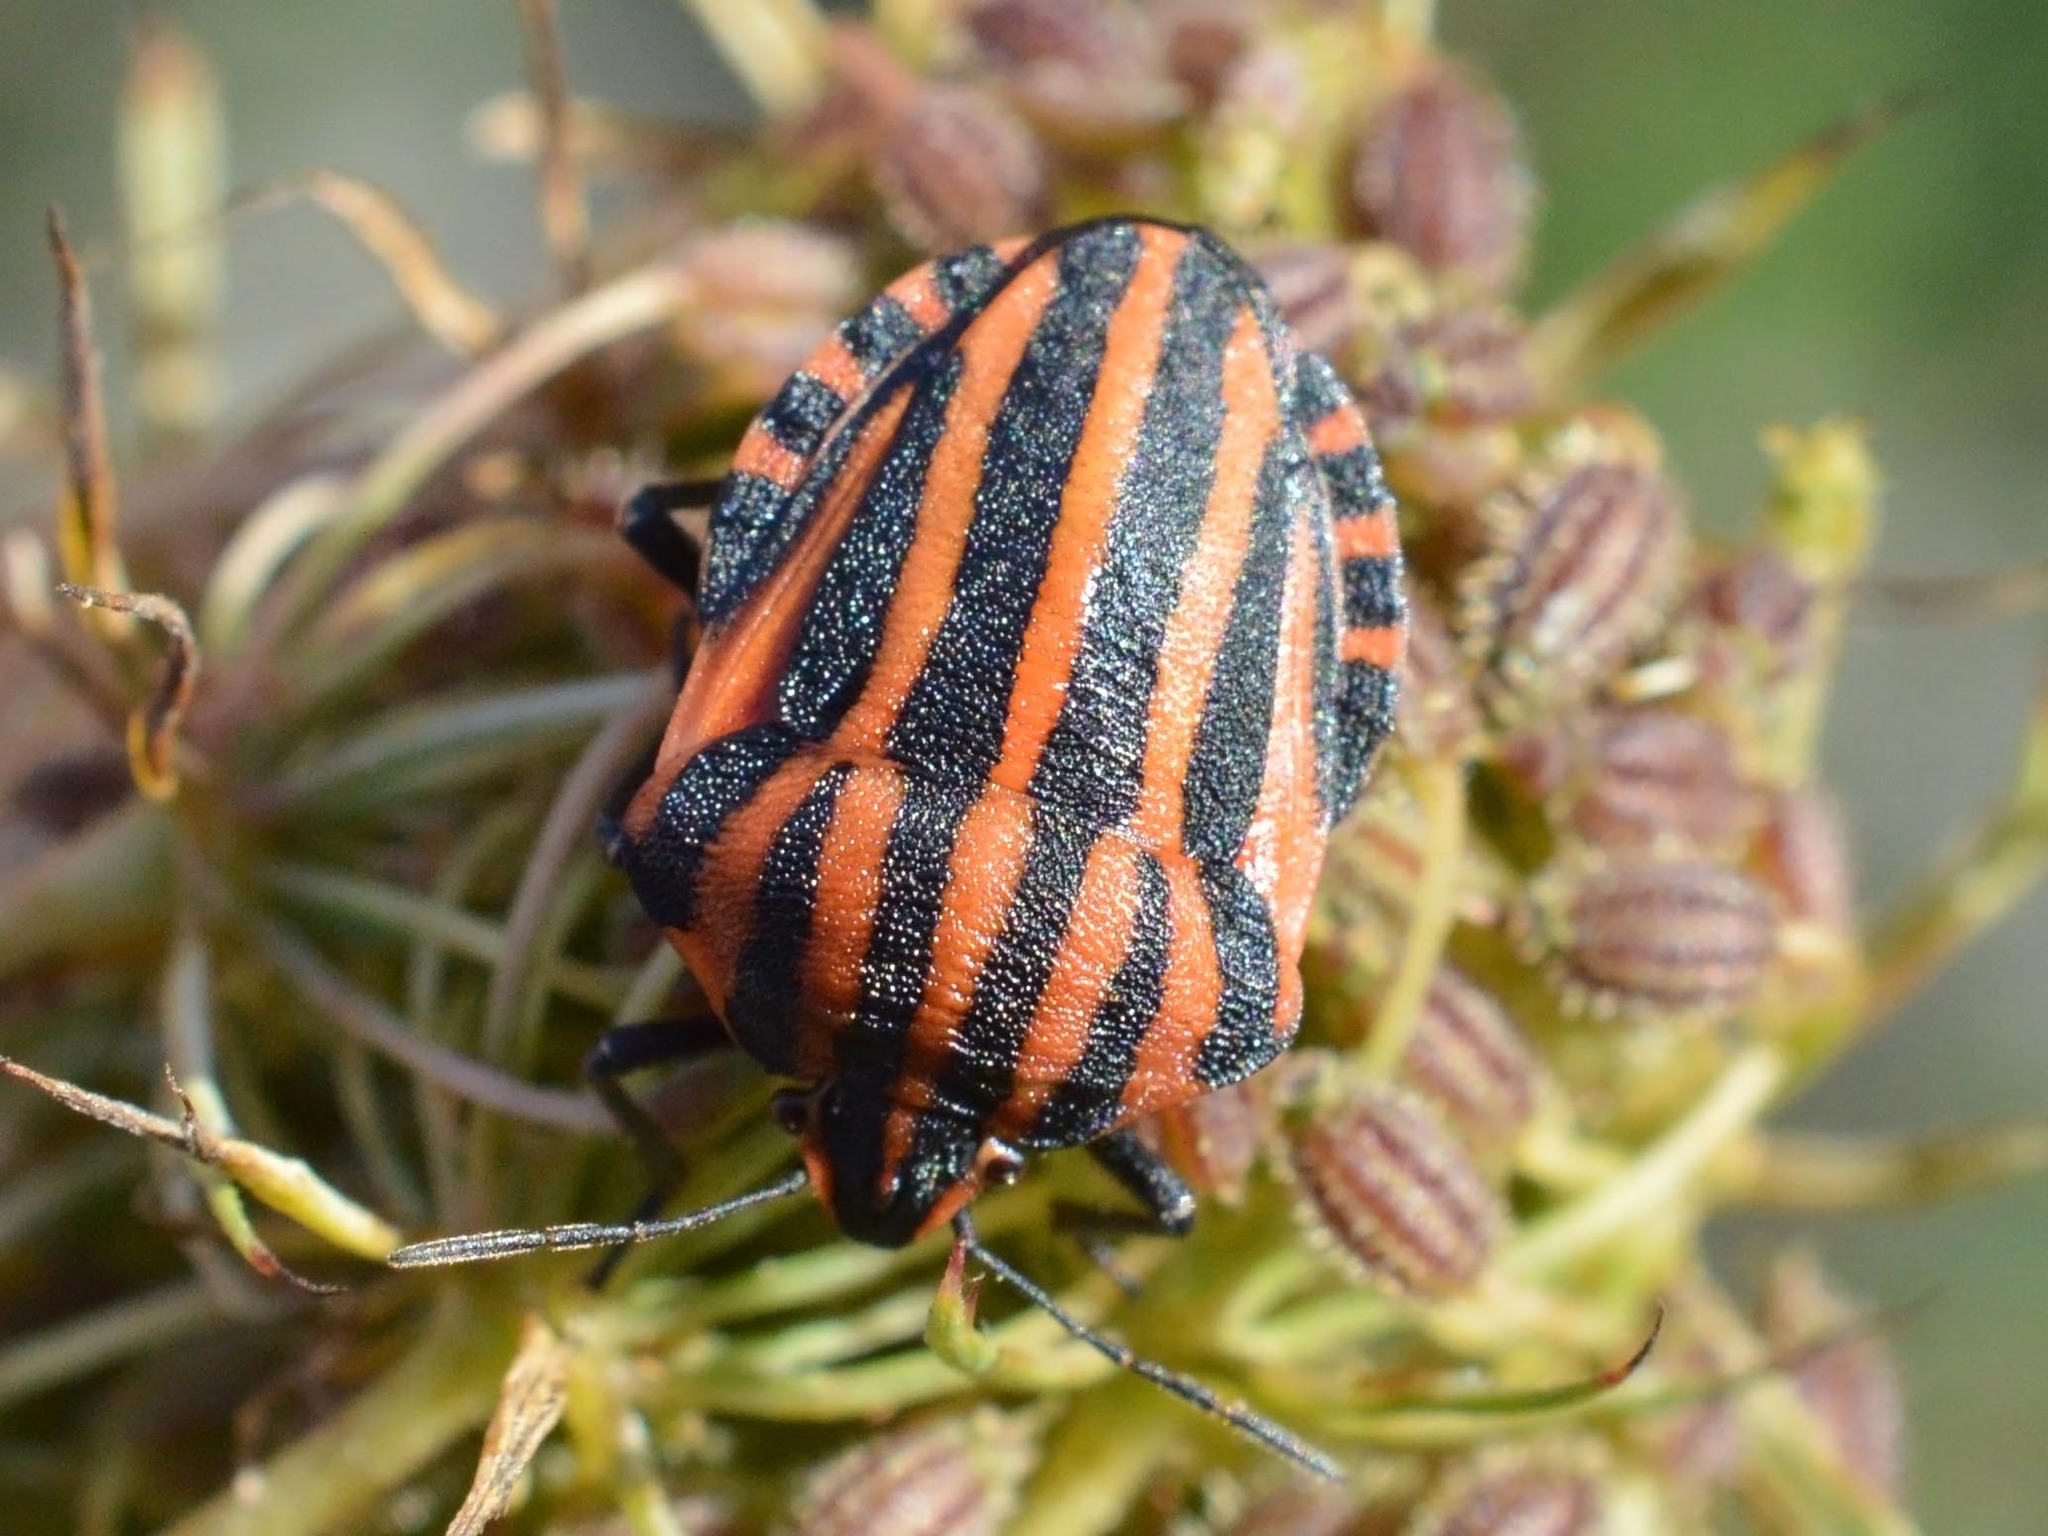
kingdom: Animalia
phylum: Arthropoda
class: Insecta
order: Hemiptera
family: Pentatomidae
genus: Graphosoma
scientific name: Graphosoma italicum
